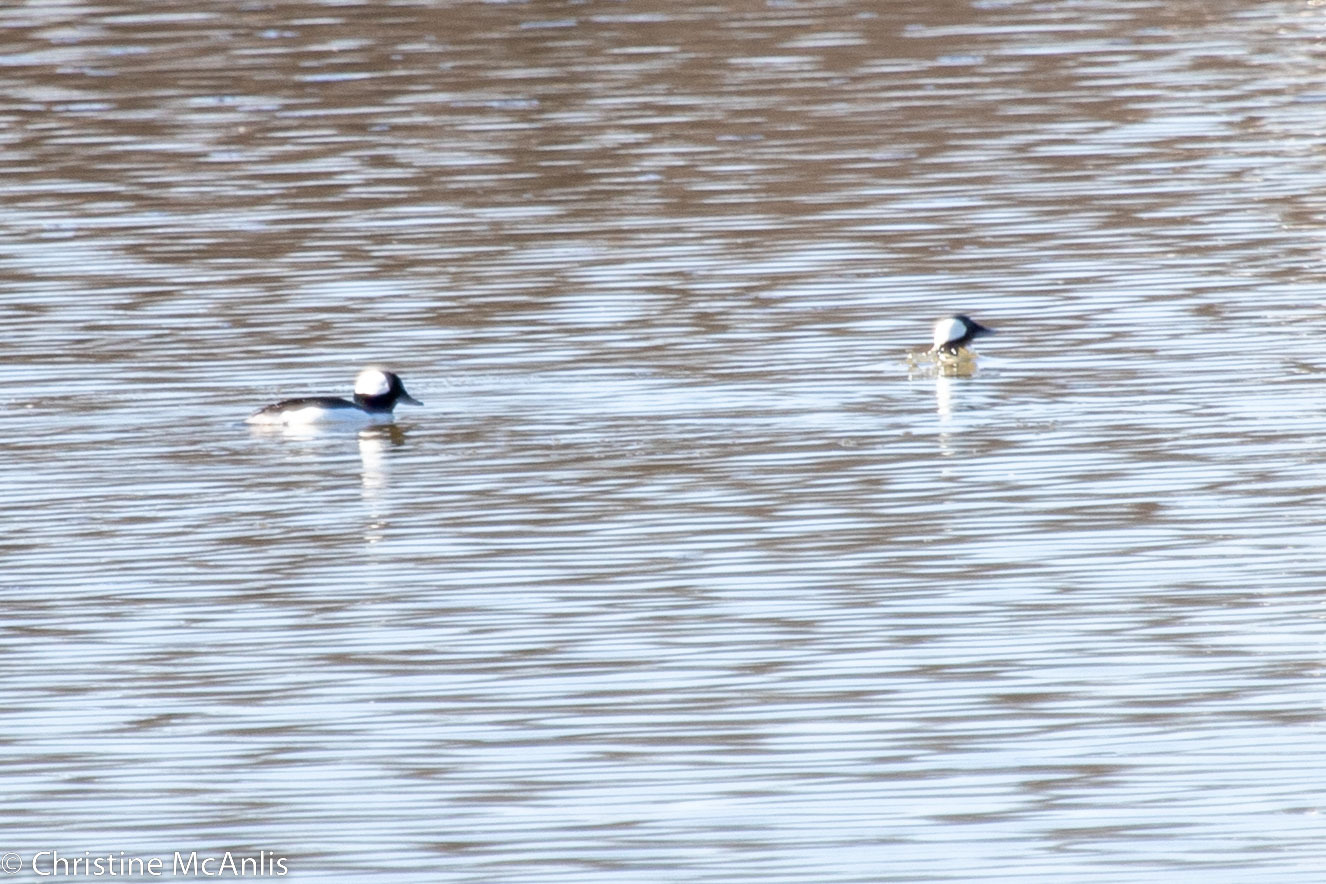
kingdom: Animalia
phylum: Chordata
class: Aves
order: Anseriformes
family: Anatidae
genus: Bucephala
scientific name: Bucephala albeola
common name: Bufflehead
